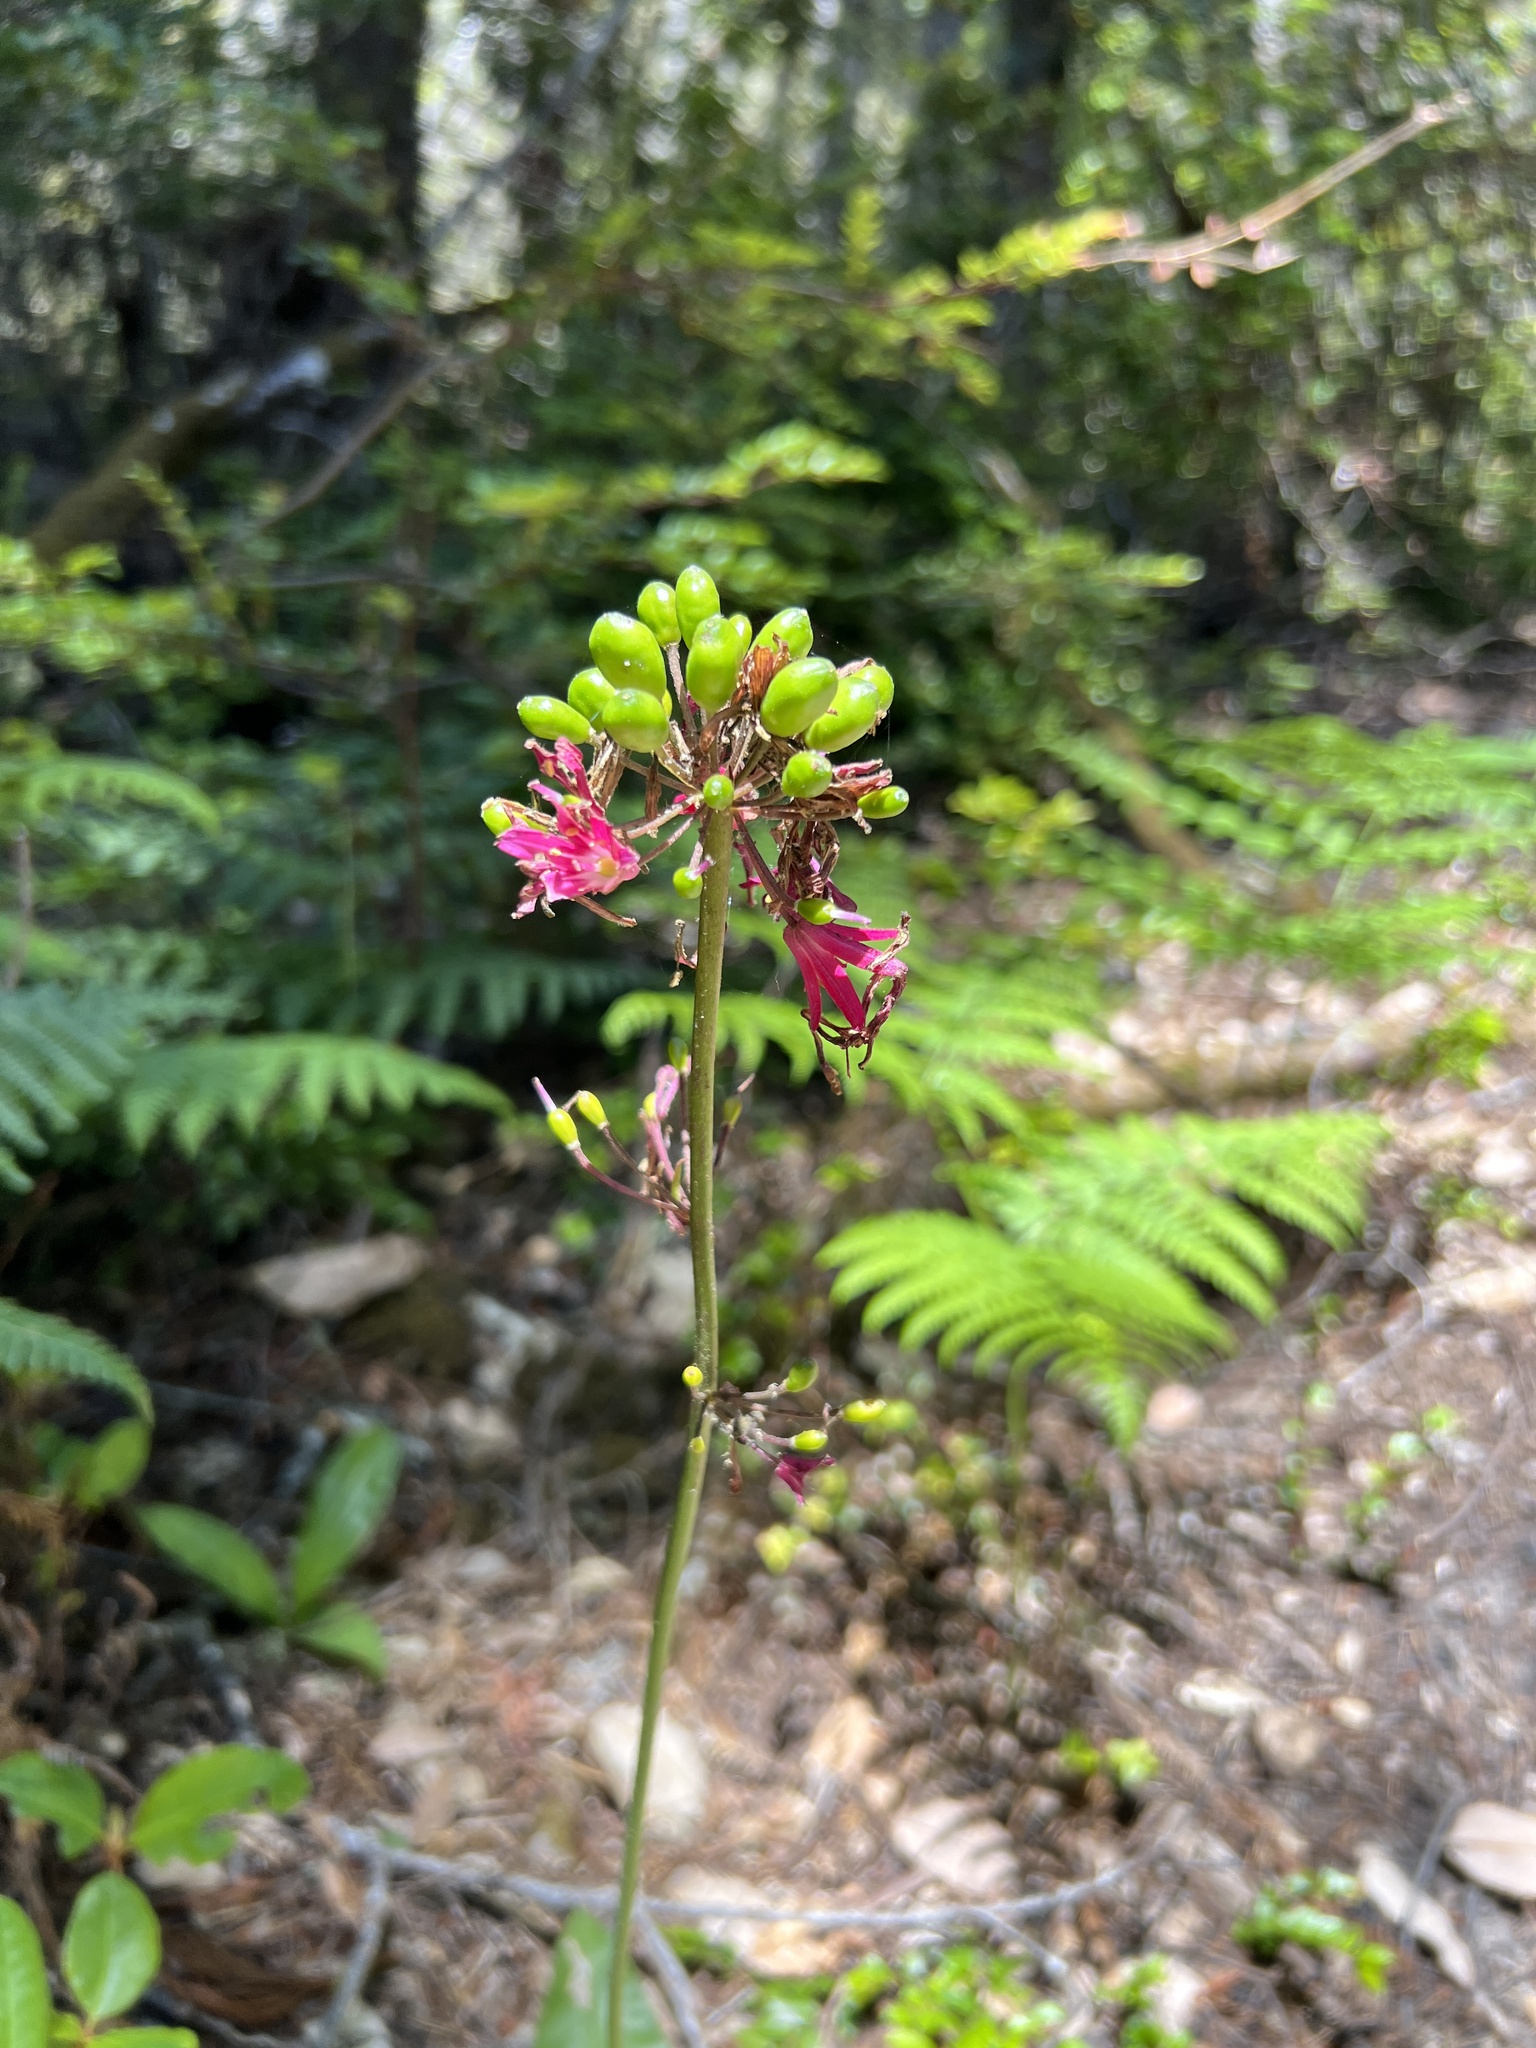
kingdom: Plantae
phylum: Tracheophyta
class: Liliopsida
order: Liliales
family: Liliaceae
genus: Clintonia
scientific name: Clintonia andrewsiana
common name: Red clintonia
